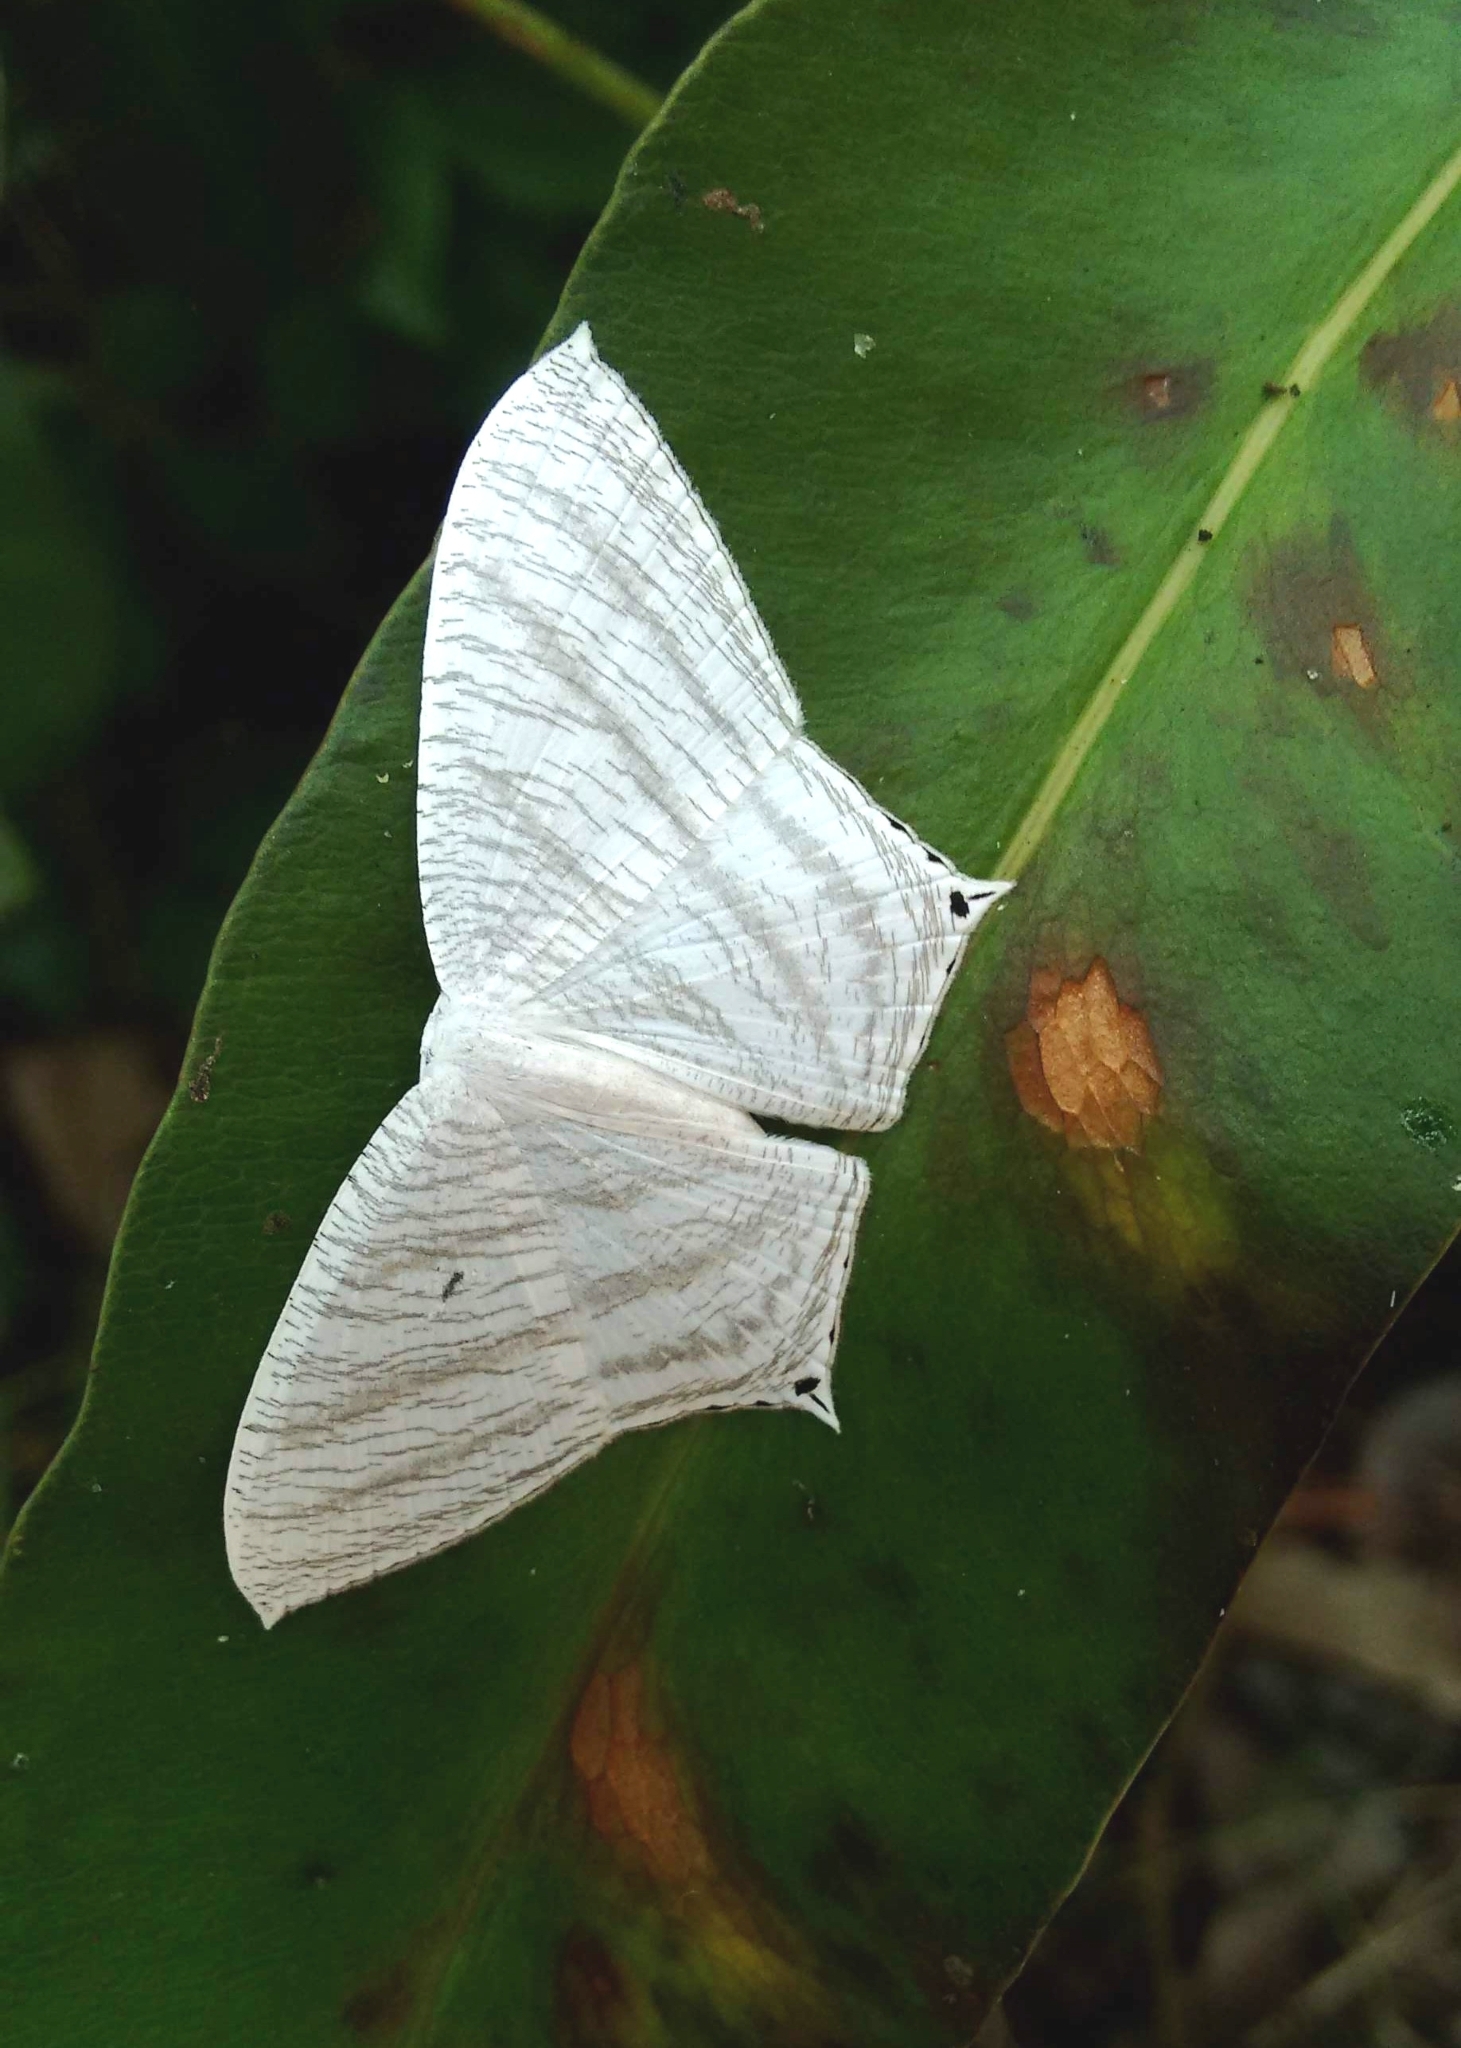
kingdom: Animalia
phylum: Arthropoda
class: Insecta
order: Lepidoptera
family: Uraniidae
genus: Micronia
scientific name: Micronia aculeata
